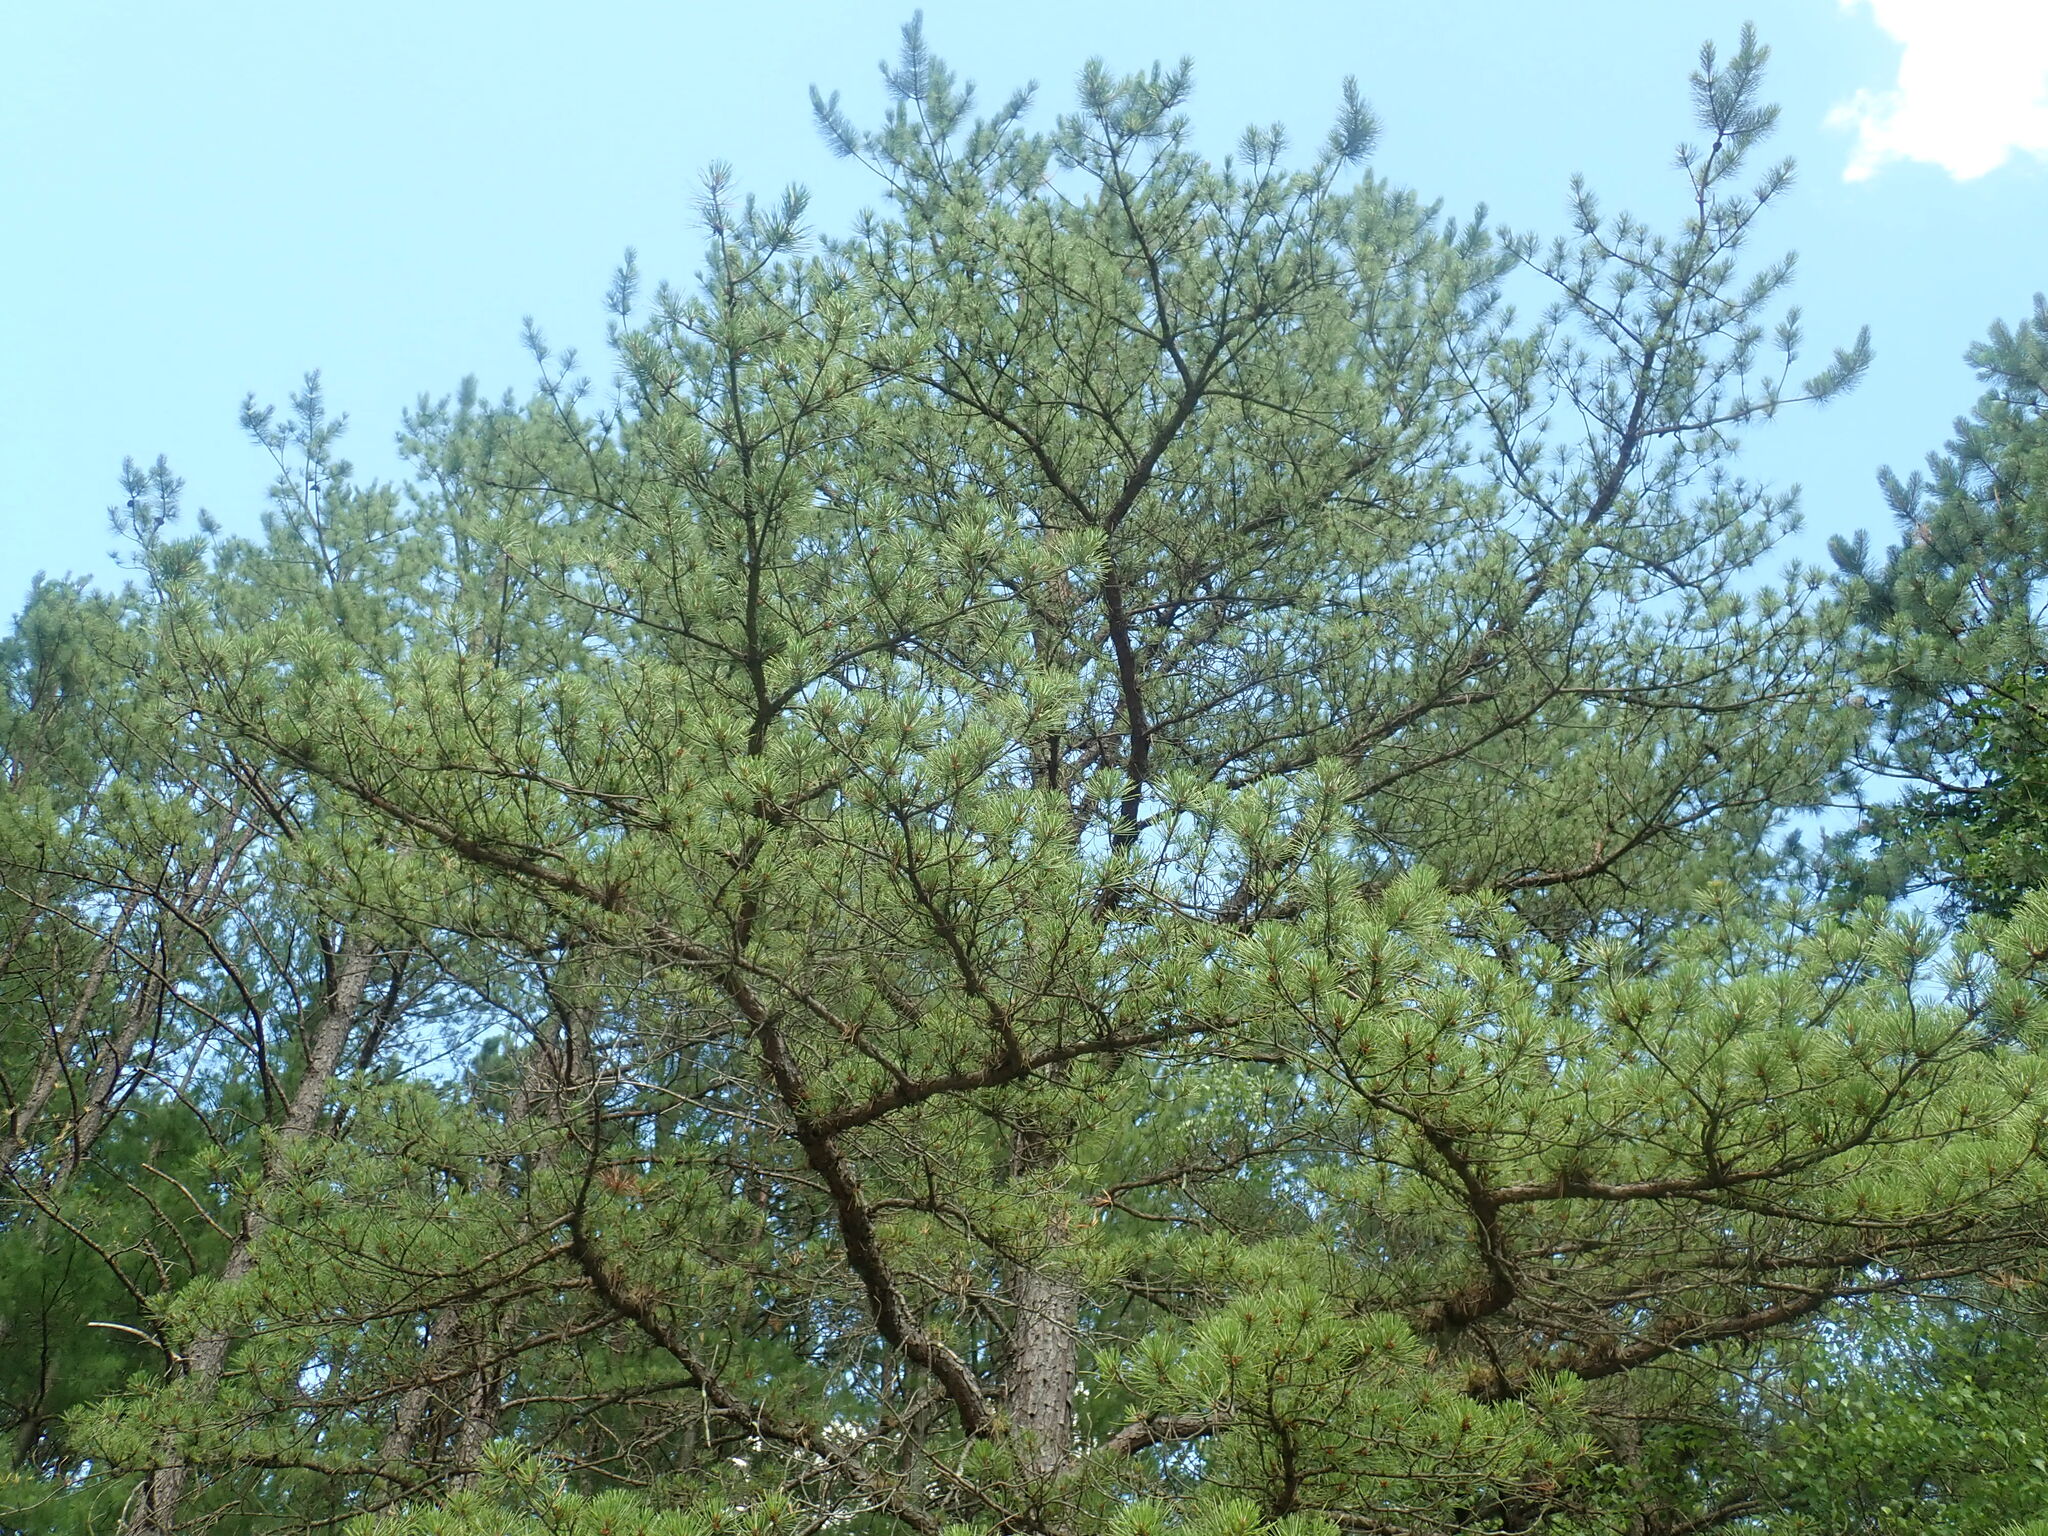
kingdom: Plantae
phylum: Tracheophyta
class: Pinopsida
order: Pinales
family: Pinaceae
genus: Pinus
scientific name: Pinus rigida
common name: Pitch pine
